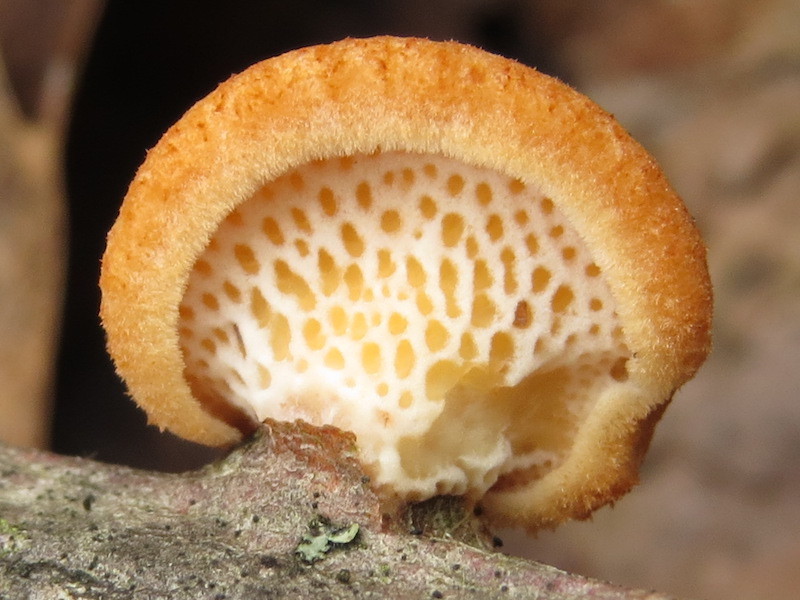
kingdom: Fungi
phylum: Basidiomycota
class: Agaricomycetes
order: Polyporales
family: Polyporaceae
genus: Neofavolus
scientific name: Neofavolus alveolaris
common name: Hexagonal-pored polypore
